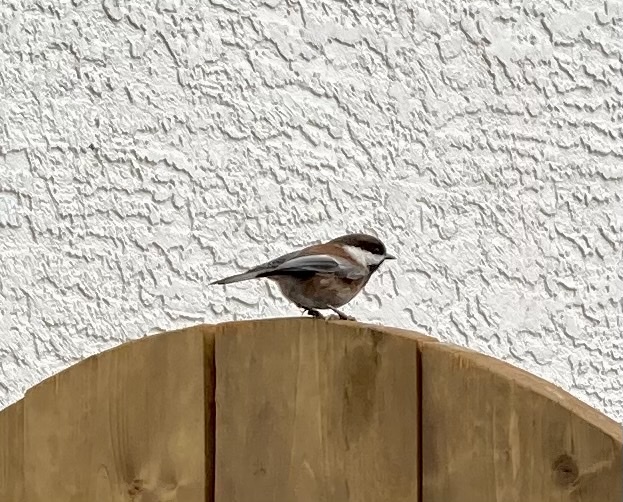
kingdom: Animalia
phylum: Chordata
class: Aves
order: Passeriformes
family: Paridae
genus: Poecile
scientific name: Poecile rufescens
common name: Chestnut-backed chickadee
